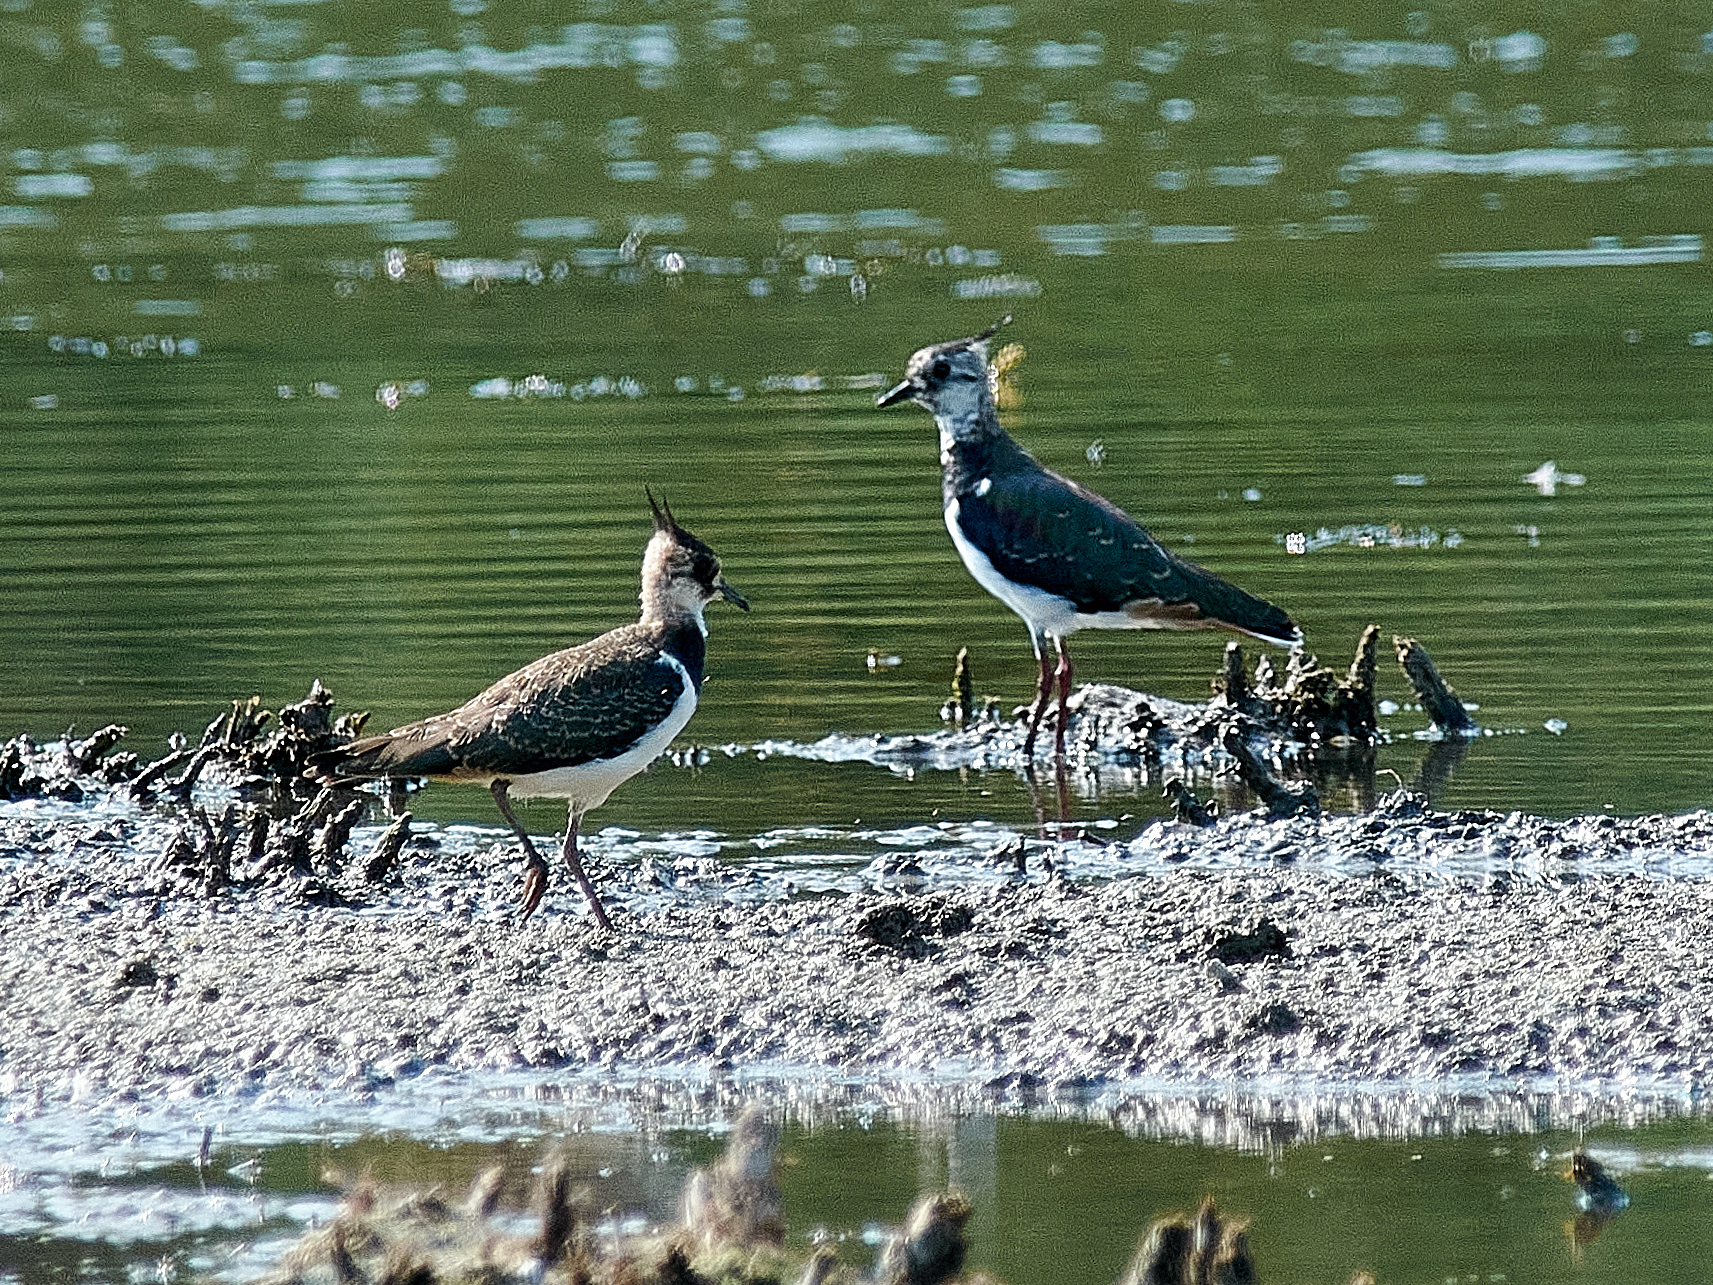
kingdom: Animalia
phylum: Chordata
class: Aves
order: Charadriiformes
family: Charadriidae
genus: Vanellus
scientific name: Vanellus vanellus
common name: Northern lapwing
